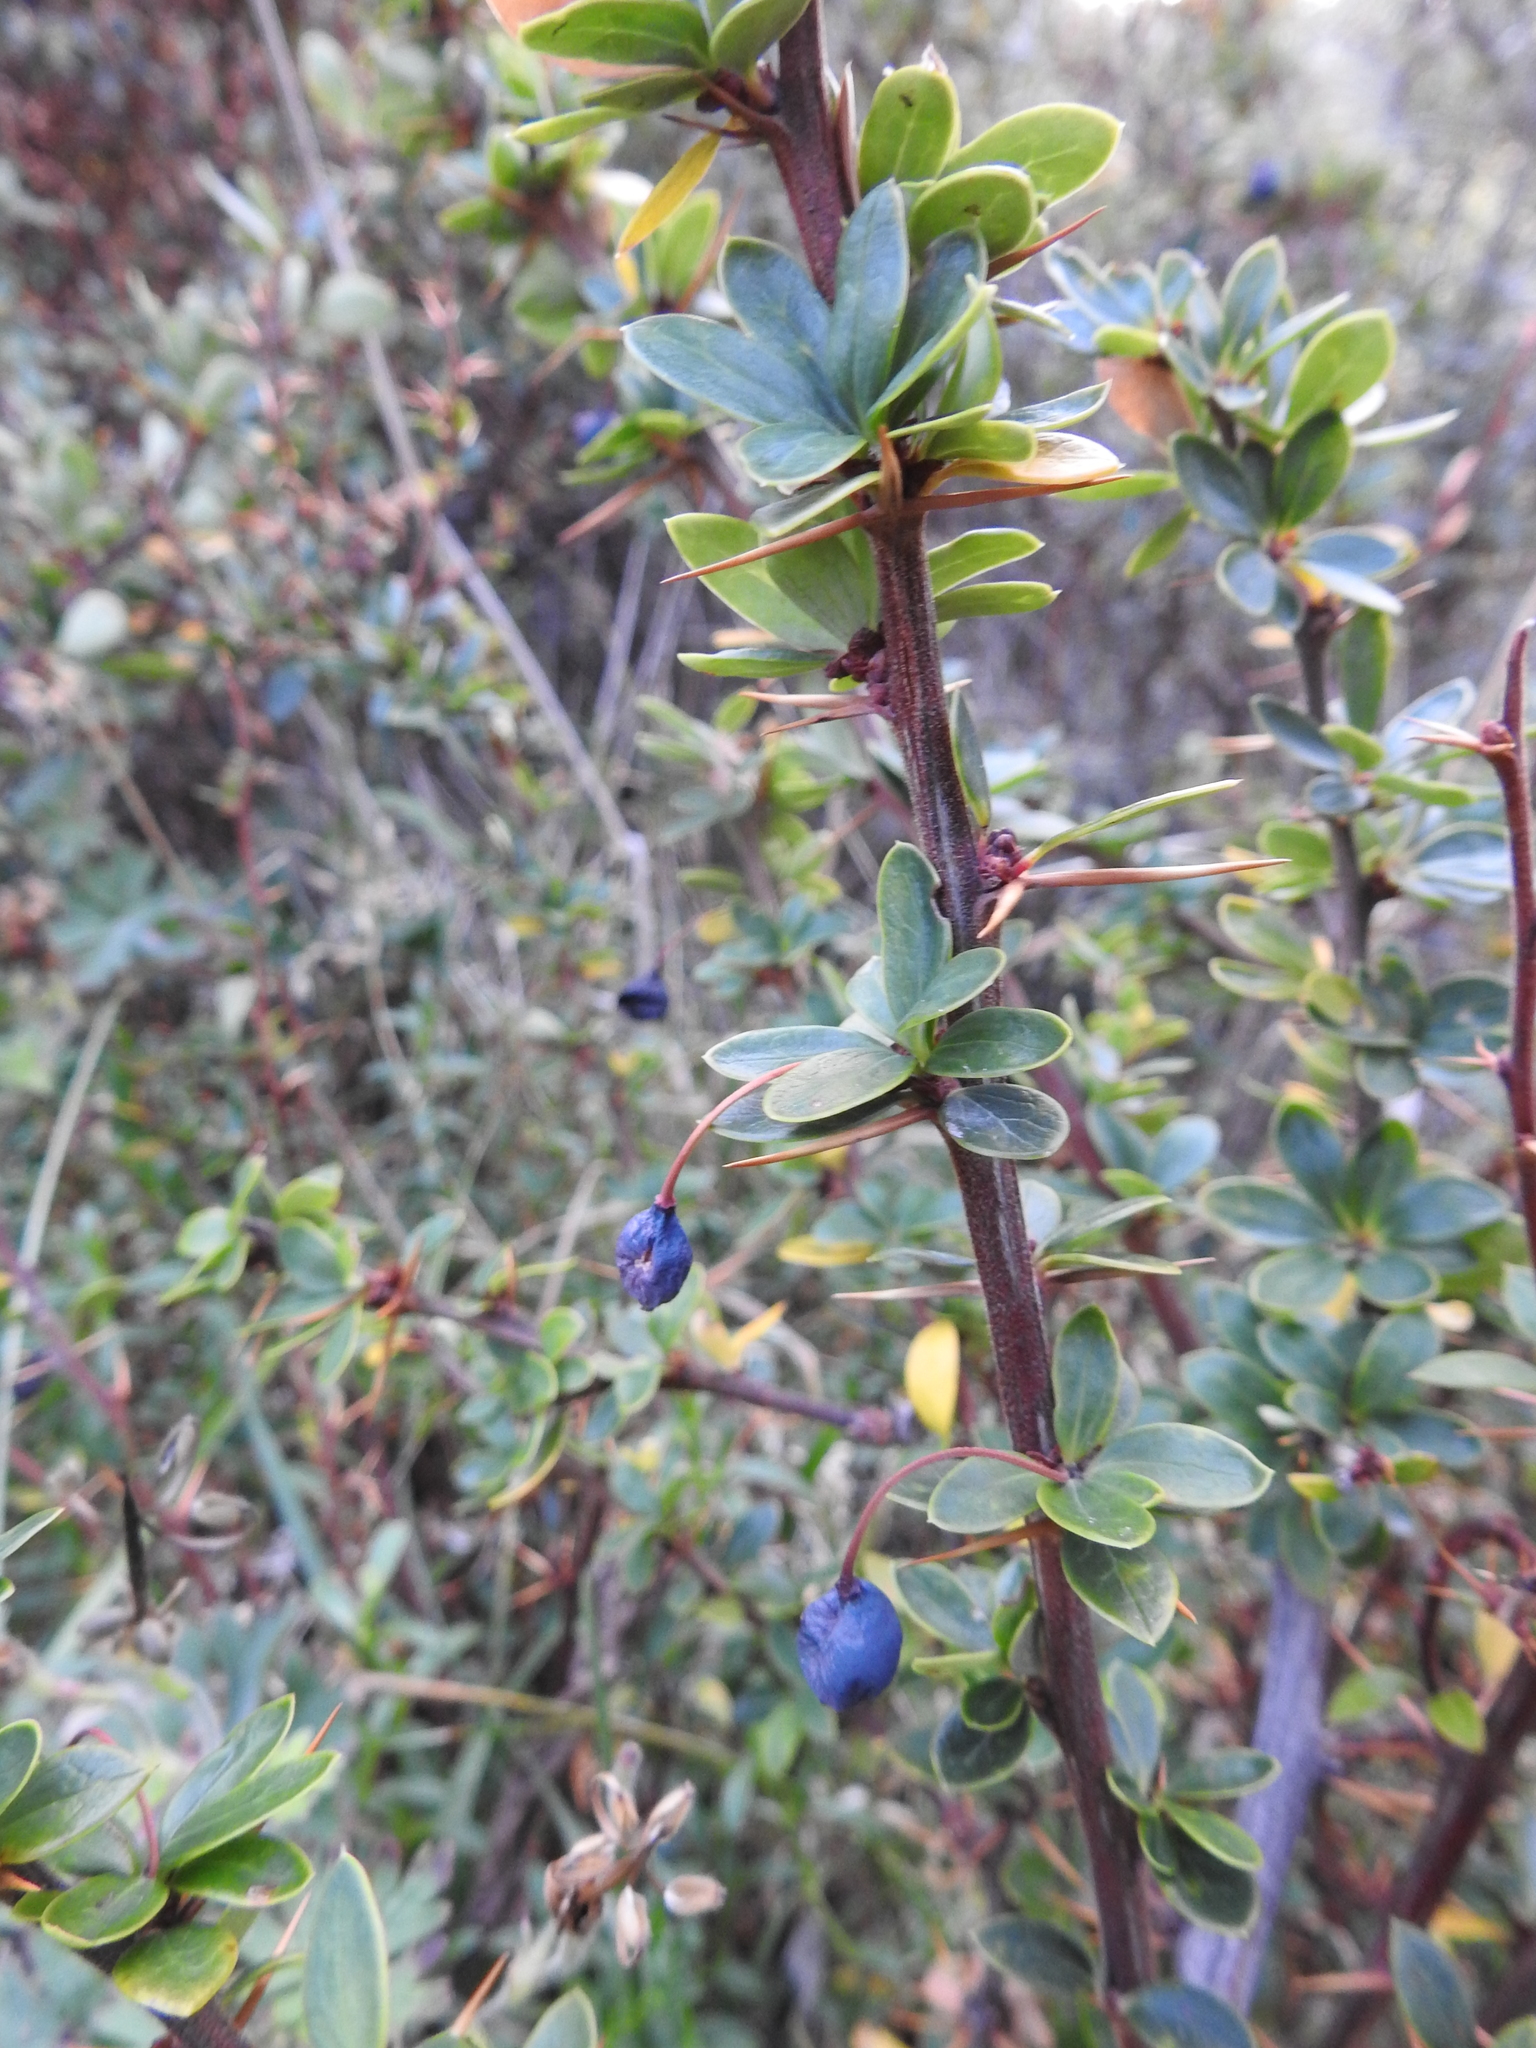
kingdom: Plantae
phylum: Tracheophyta
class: Magnoliopsida
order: Ranunculales
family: Berberidaceae
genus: Berberis
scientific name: Berberis microphylla
